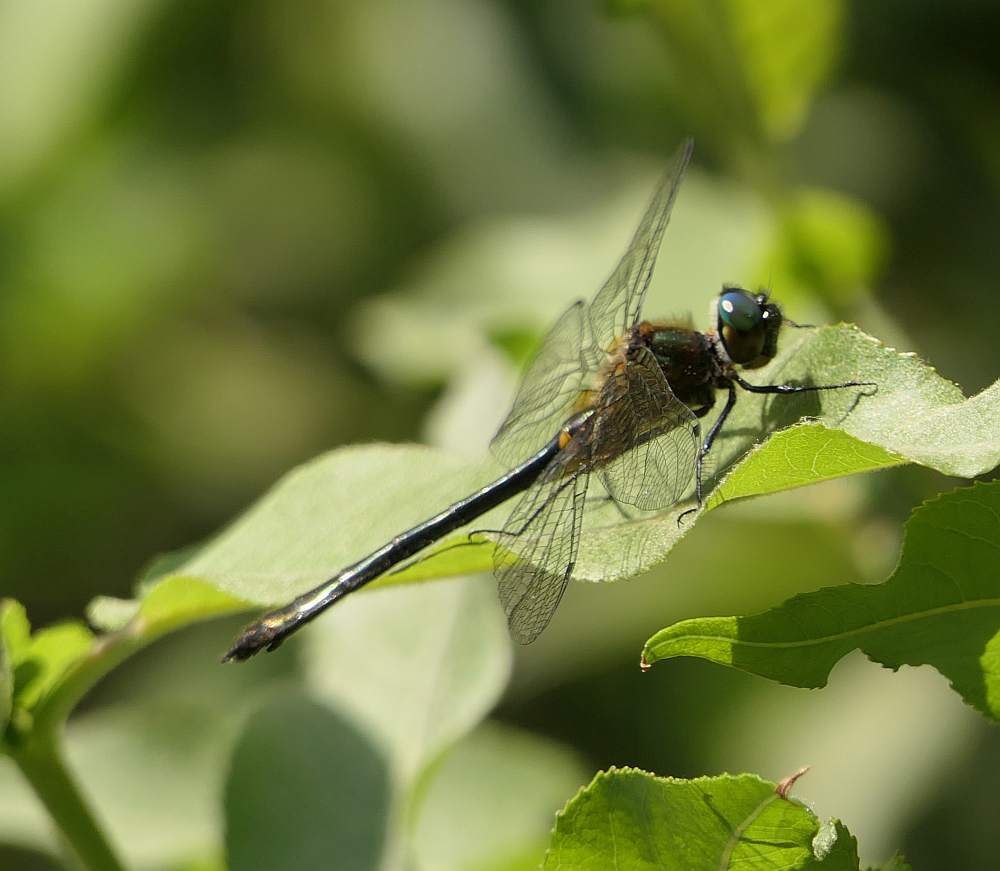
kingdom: Animalia
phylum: Arthropoda
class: Insecta
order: Odonata
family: Corduliidae
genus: Dorocordulia
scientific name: Dorocordulia libera
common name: Racket-tailed emerald
